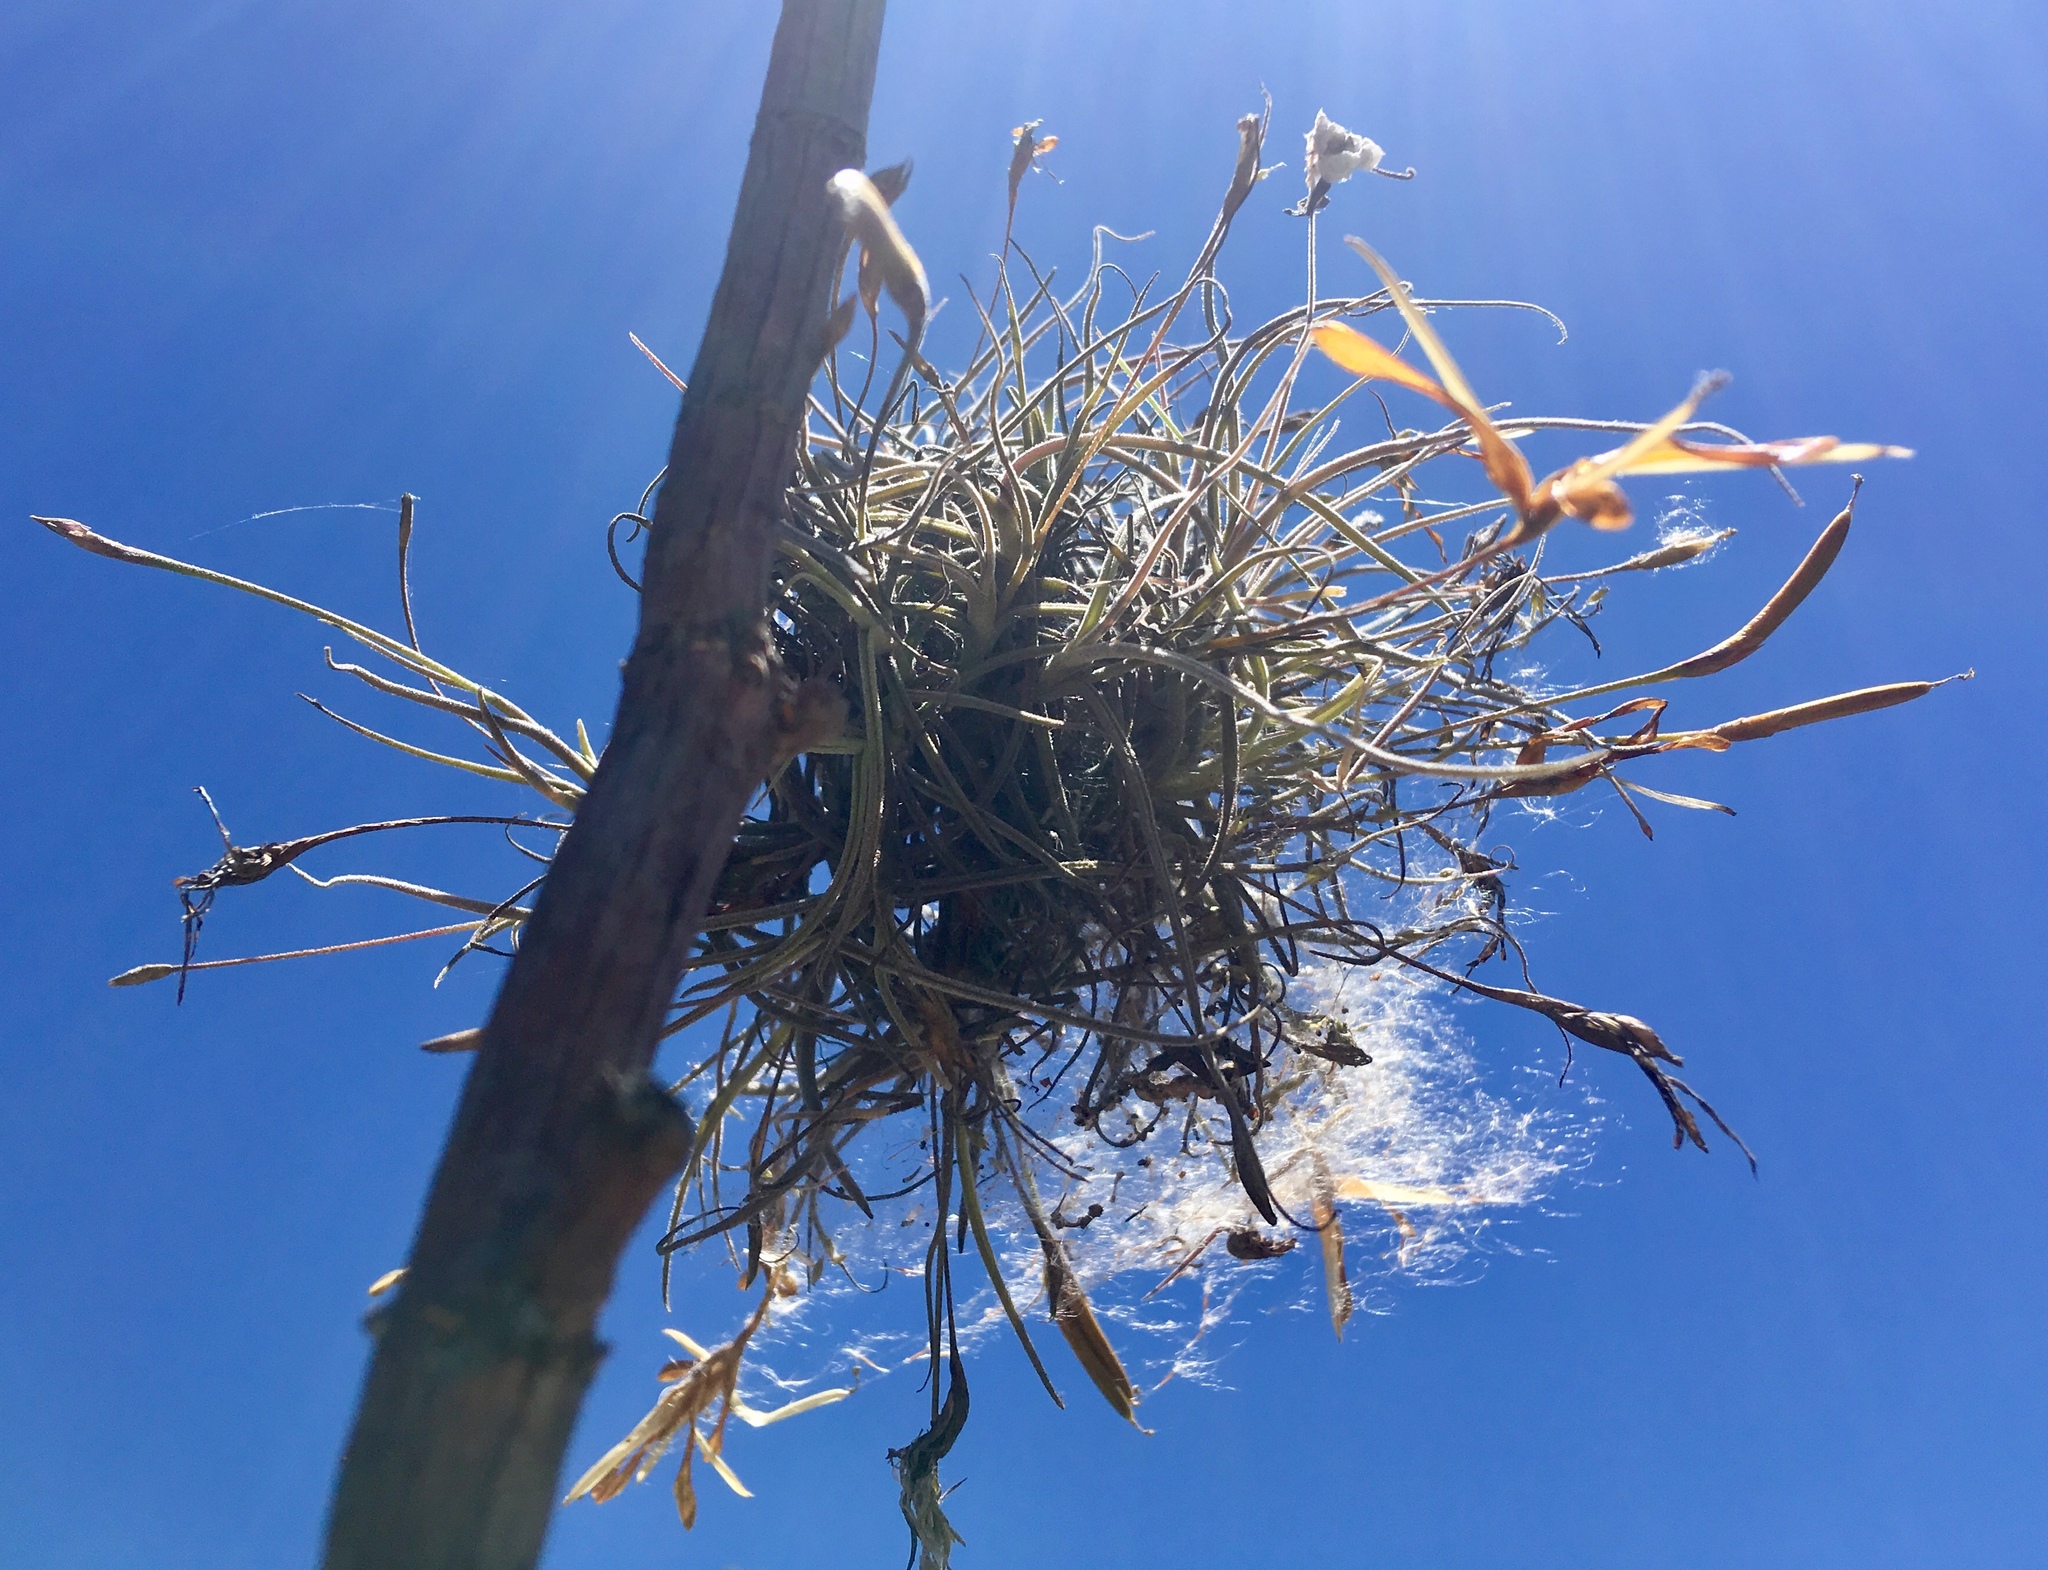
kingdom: Plantae
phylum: Tracheophyta
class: Liliopsida
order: Poales
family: Bromeliaceae
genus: Tillandsia
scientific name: Tillandsia recurvata
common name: Small ballmoss
